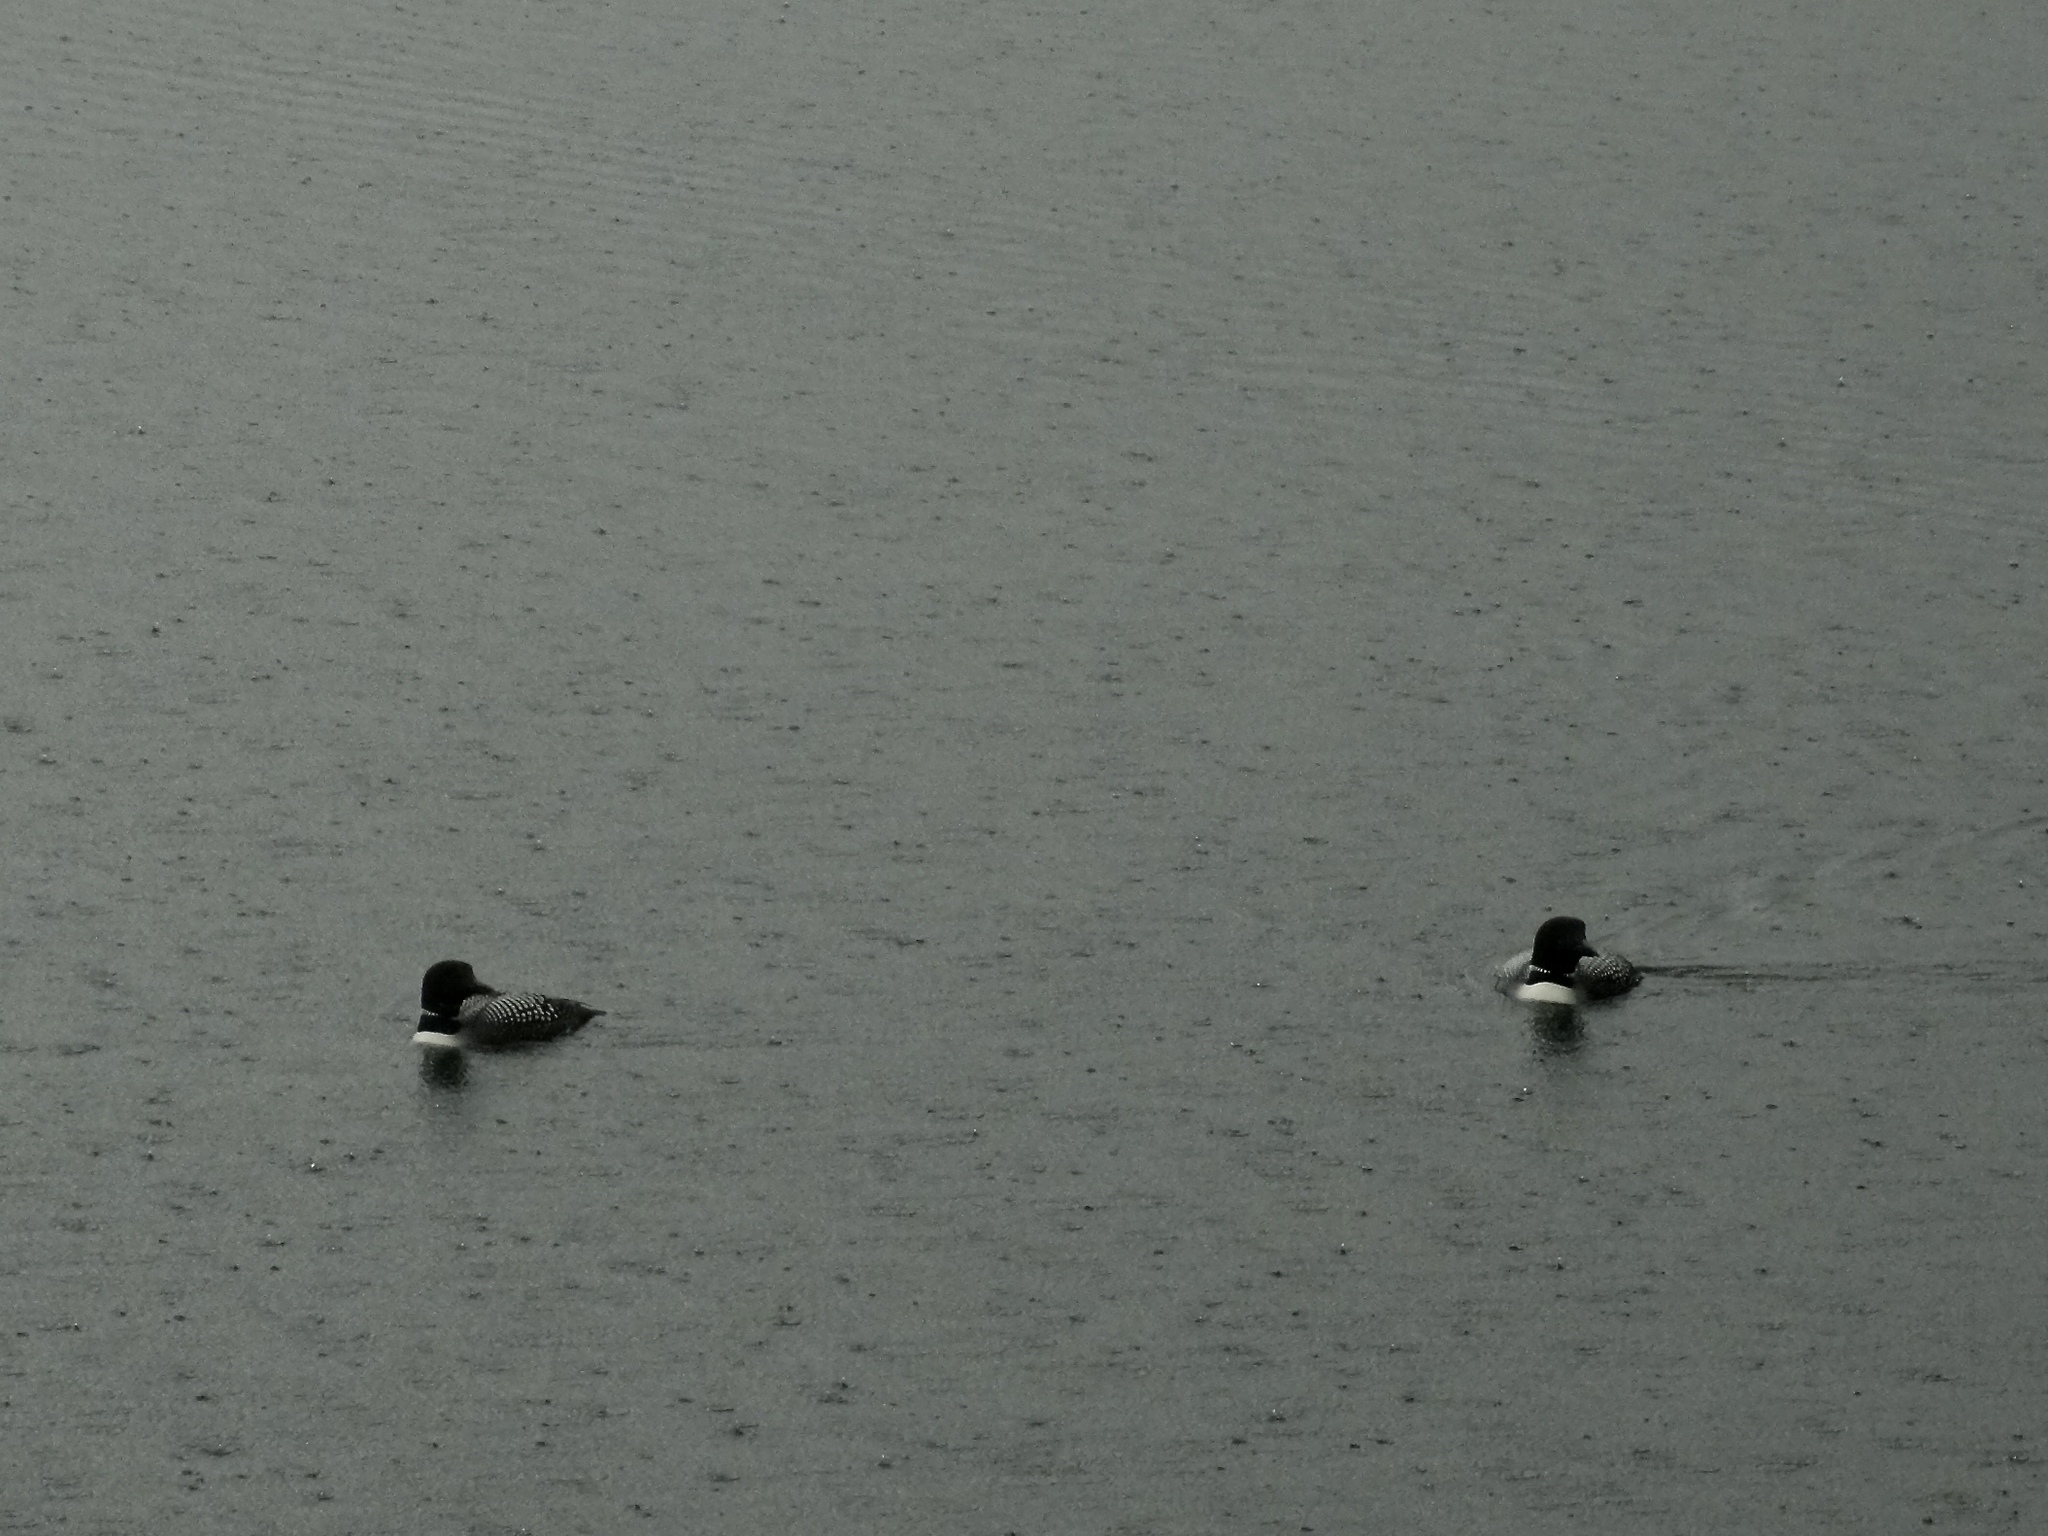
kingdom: Animalia
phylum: Chordata
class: Aves
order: Gaviiformes
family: Gaviidae
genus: Gavia
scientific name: Gavia immer
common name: Common loon
